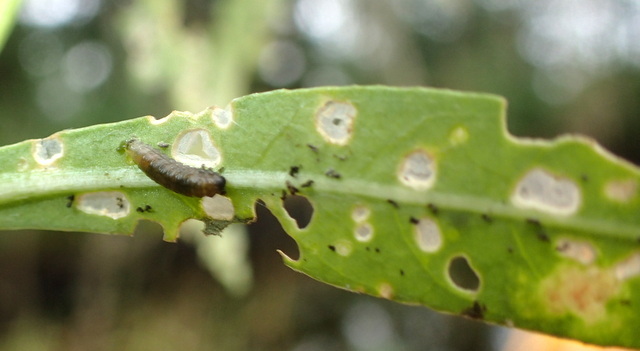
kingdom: Animalia
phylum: Arthropoda
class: Insecta
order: Coleoptera
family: Chrysomelidae
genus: Agasicles
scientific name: Agasicles hygrophila
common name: Alligatorweed flea beetle
